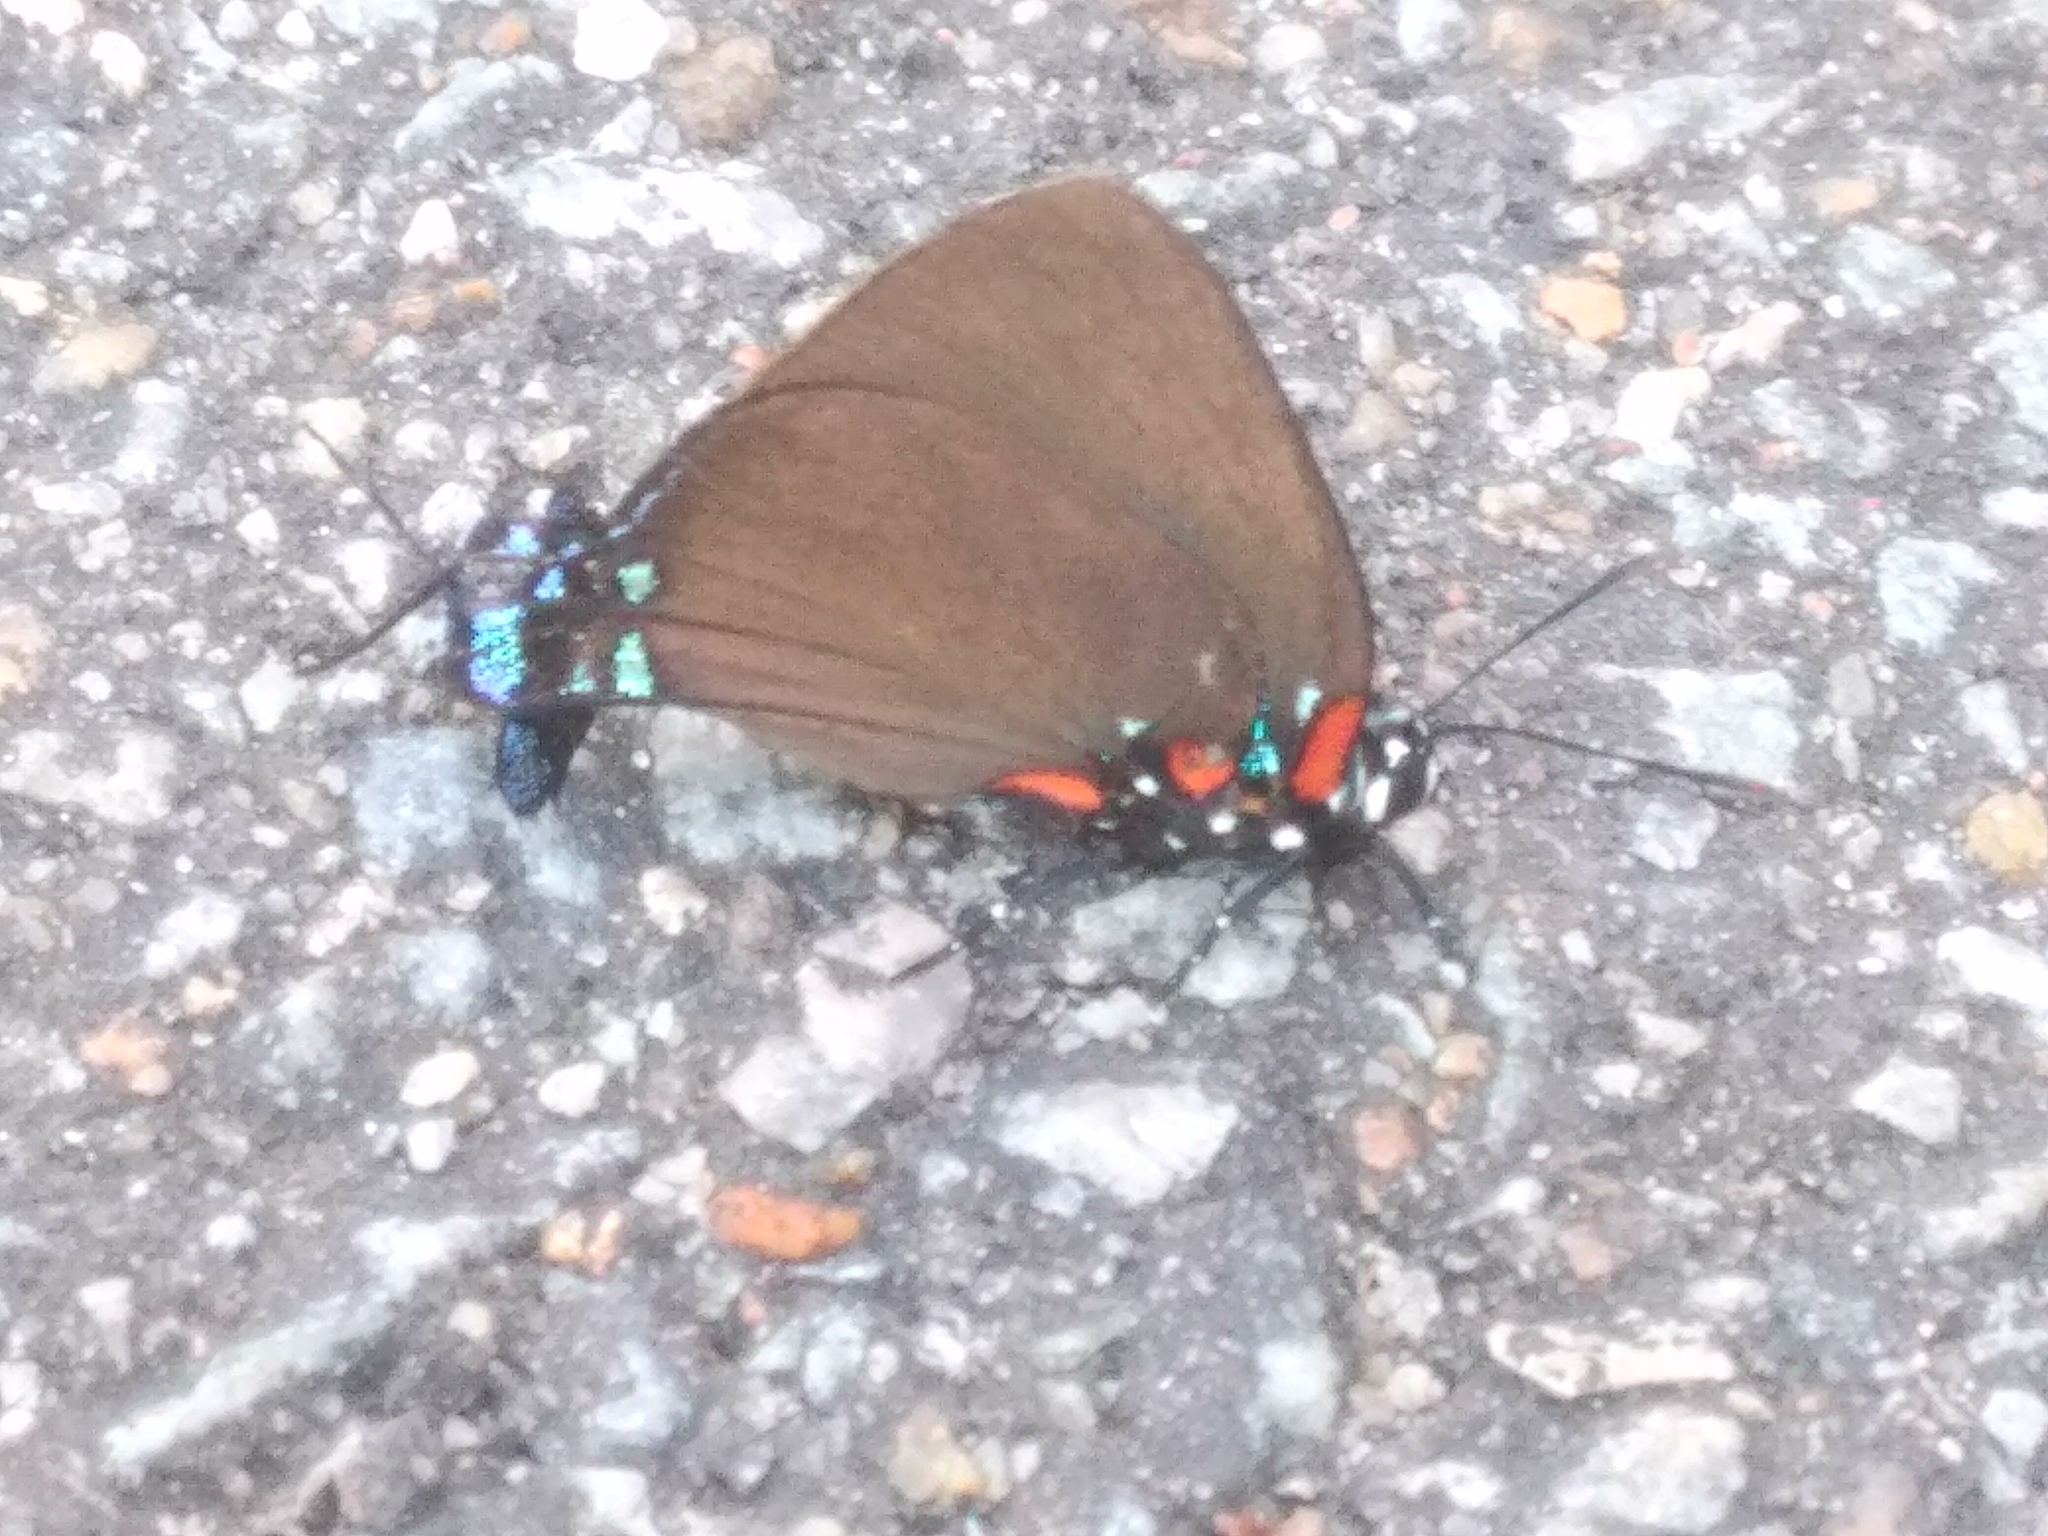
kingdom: Animalia
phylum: Arthropoda
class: Insecta
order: Lepidoptera
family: Lycaenidae
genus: Atlides
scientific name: Atlides halesus
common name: Great purple hairstreak
